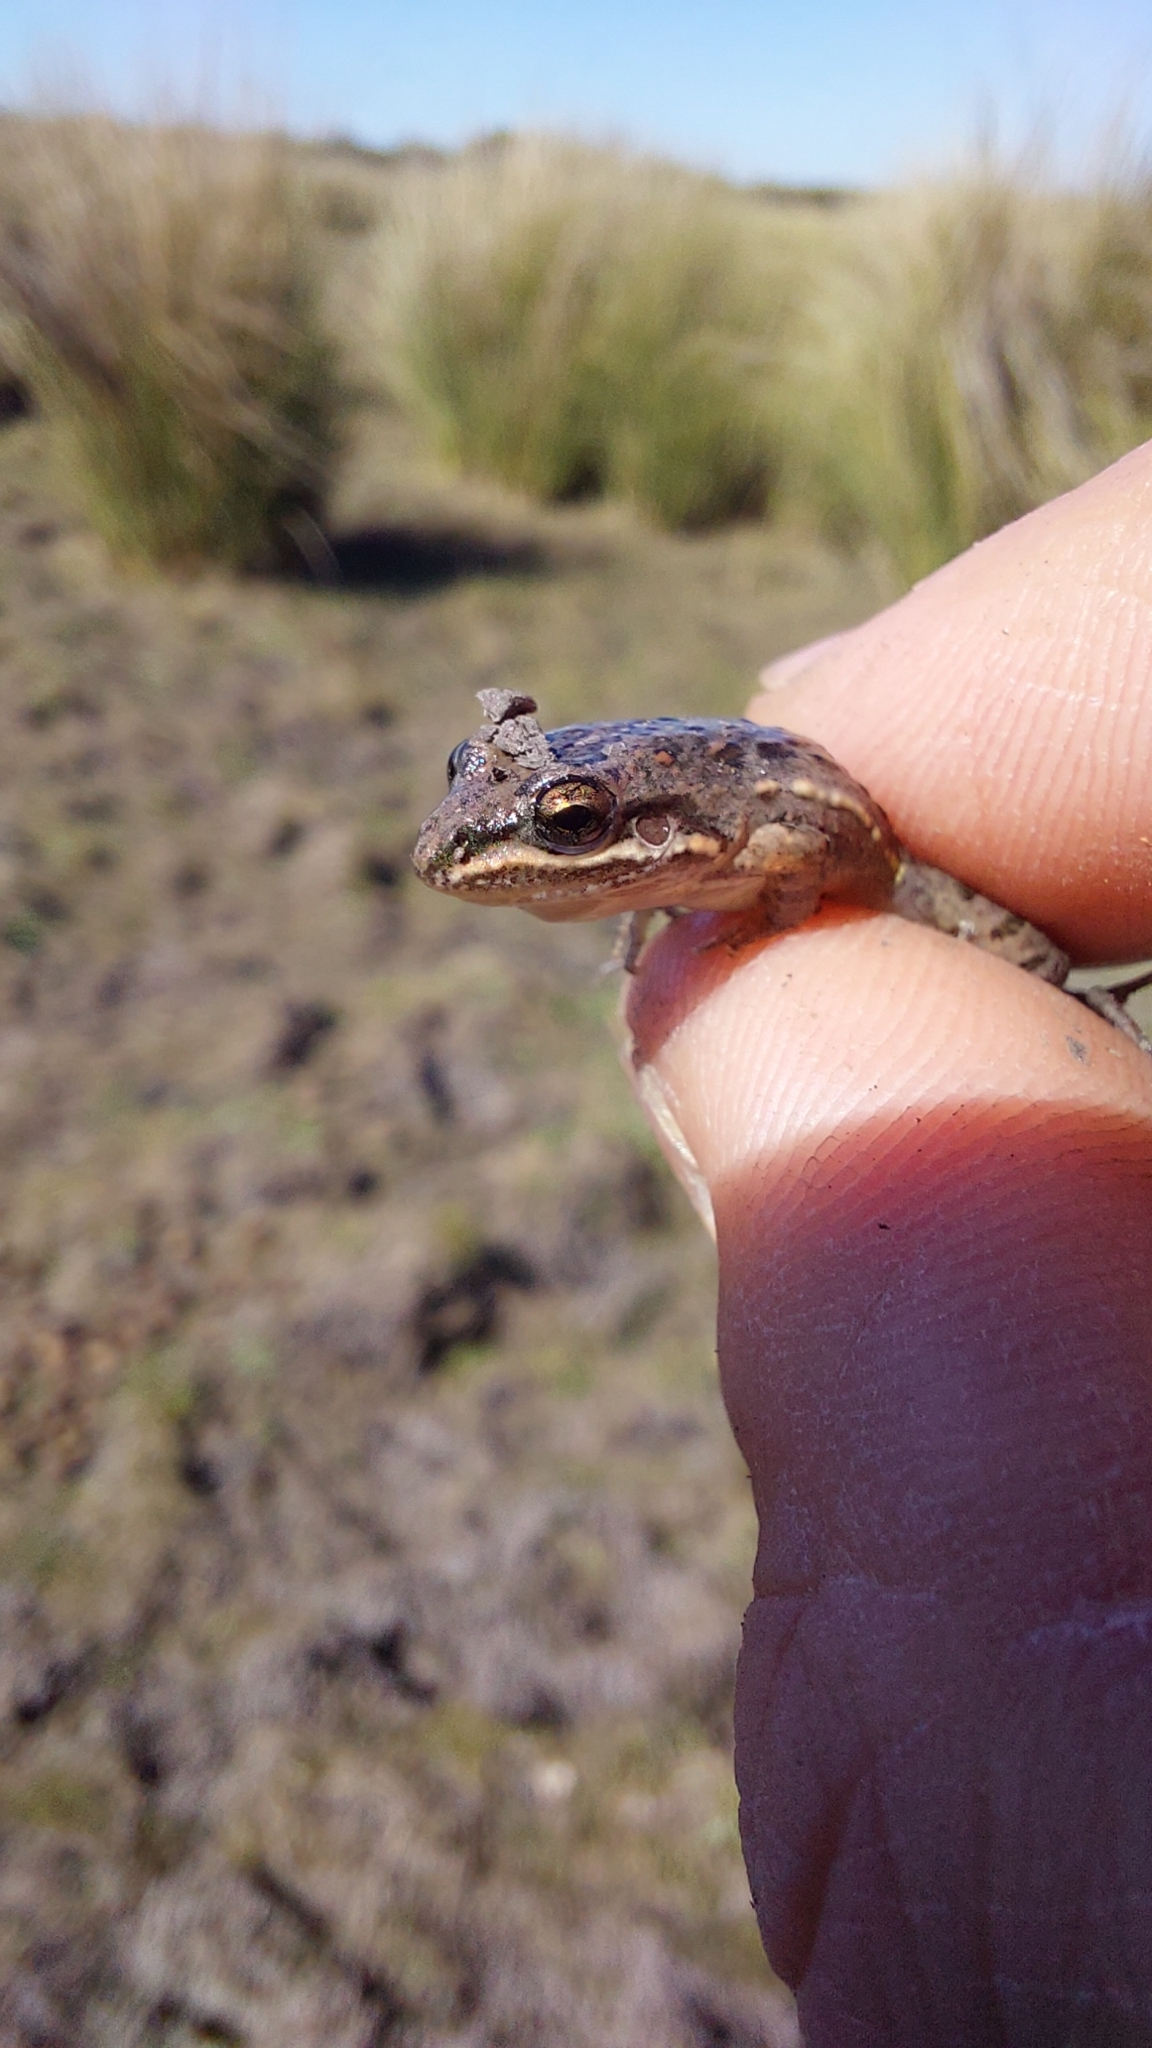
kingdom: Animalia
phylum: Chordata
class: Amphibia
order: Anura
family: Leptodactylidae
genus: Leptodactylus
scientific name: Leptodactylus latinasus
